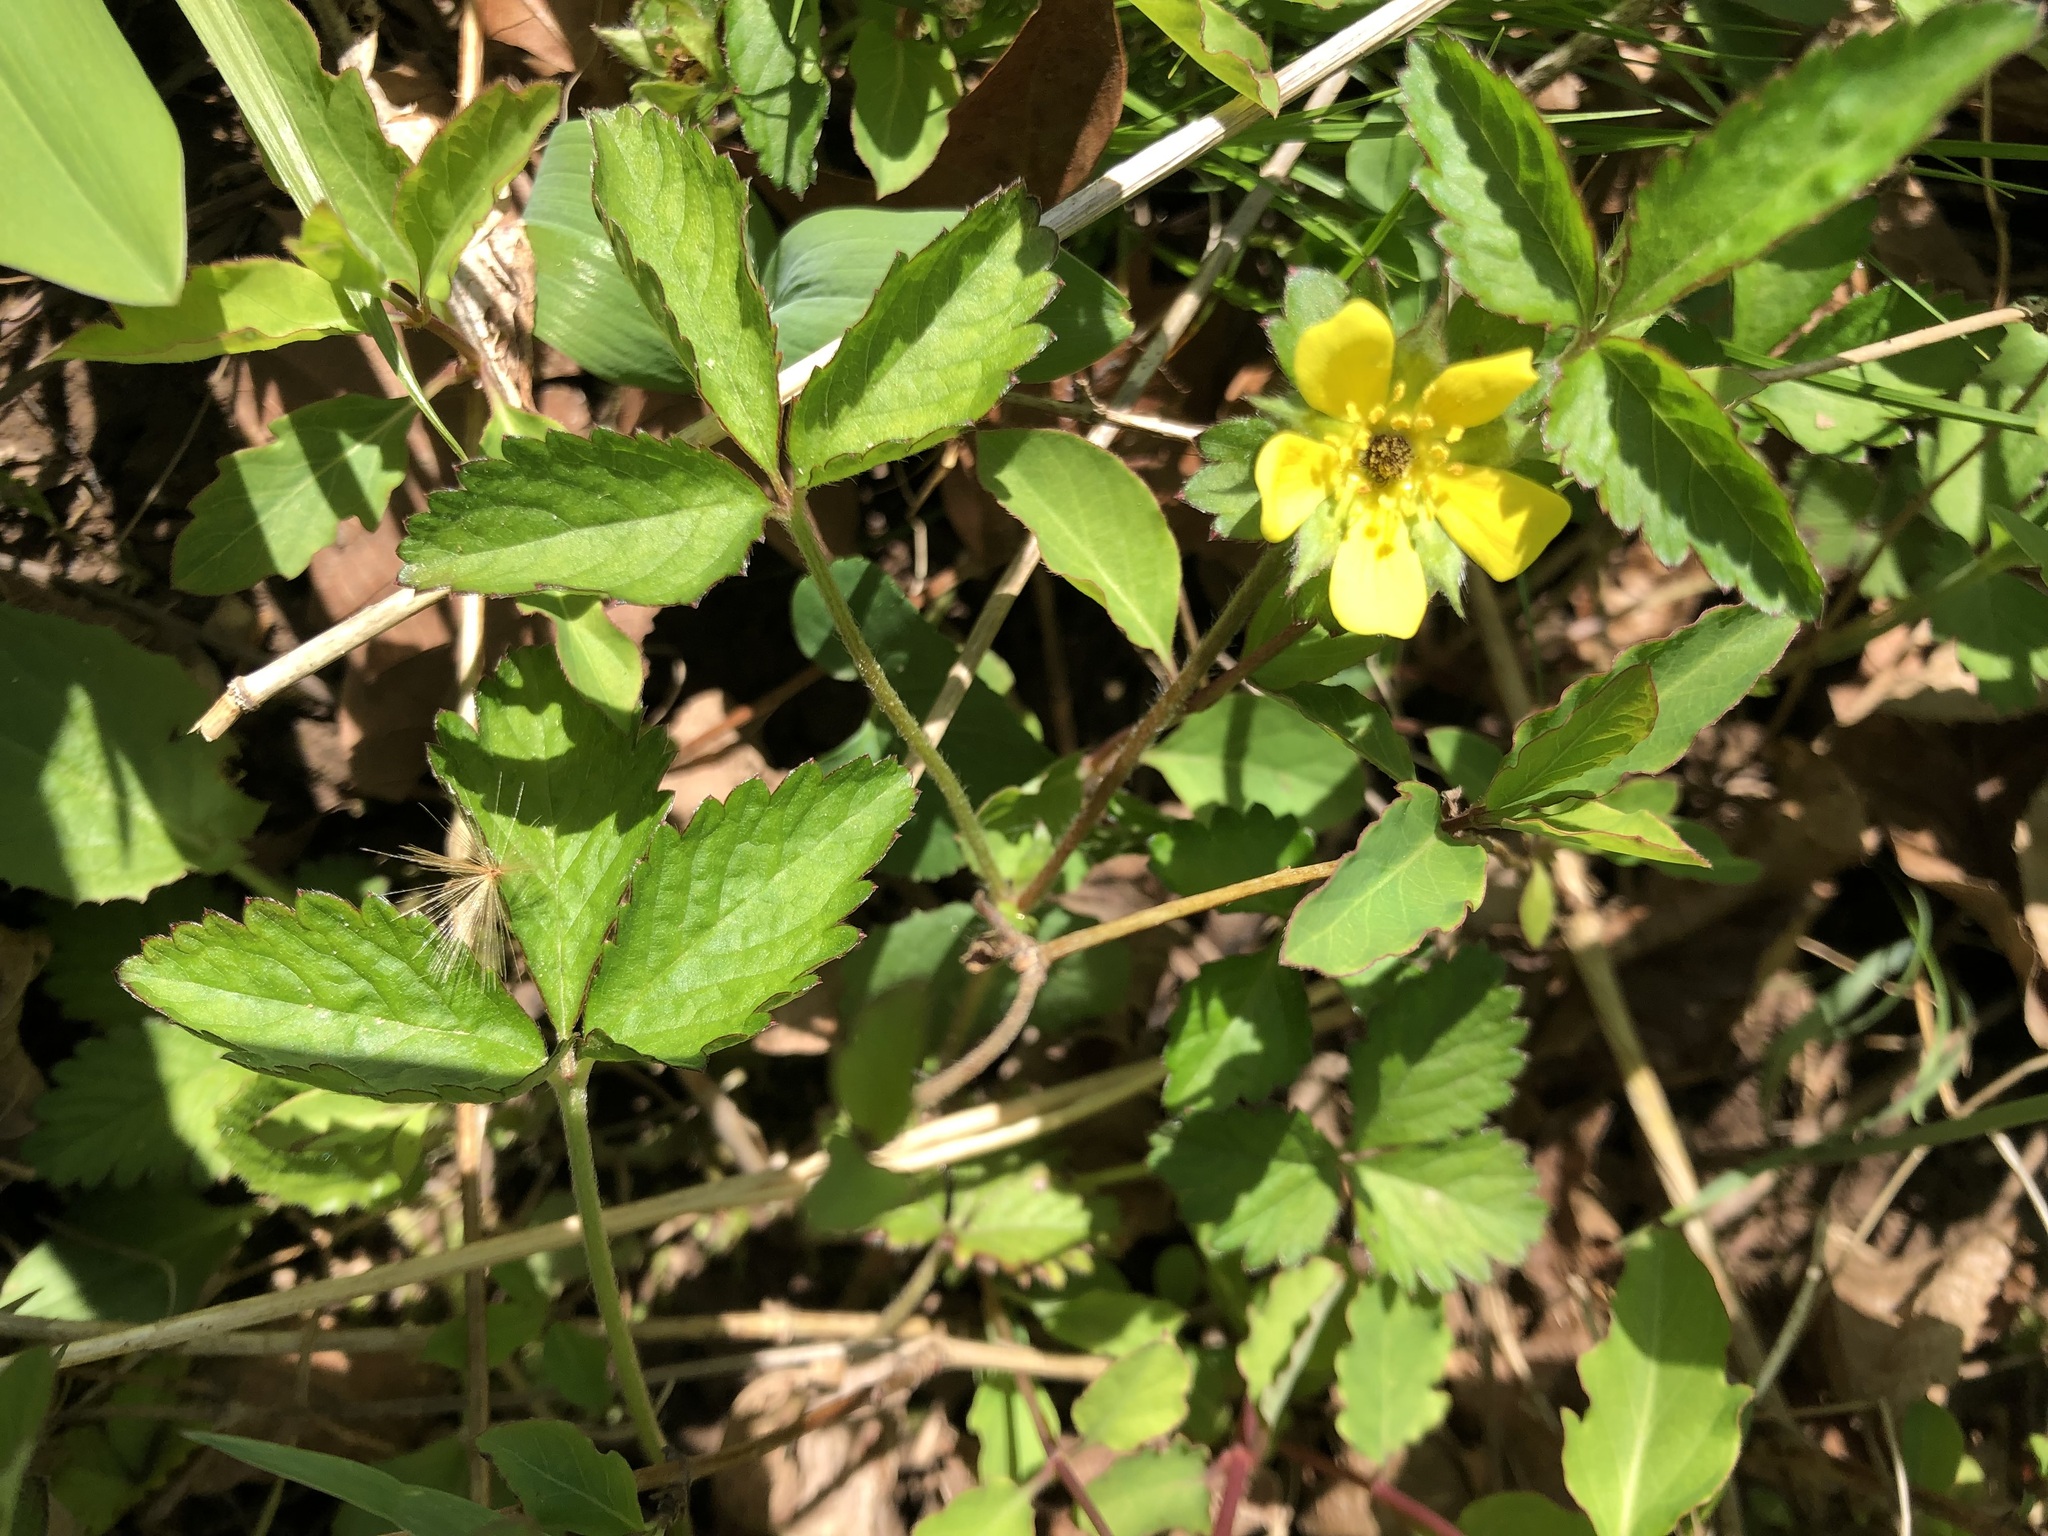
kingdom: Plantae
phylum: Tracheophyta
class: Magnoliopsida
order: Rosales
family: Rosaceae
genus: Potentilla
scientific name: Potentilla indica
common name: Yellow-flowered strawberry
